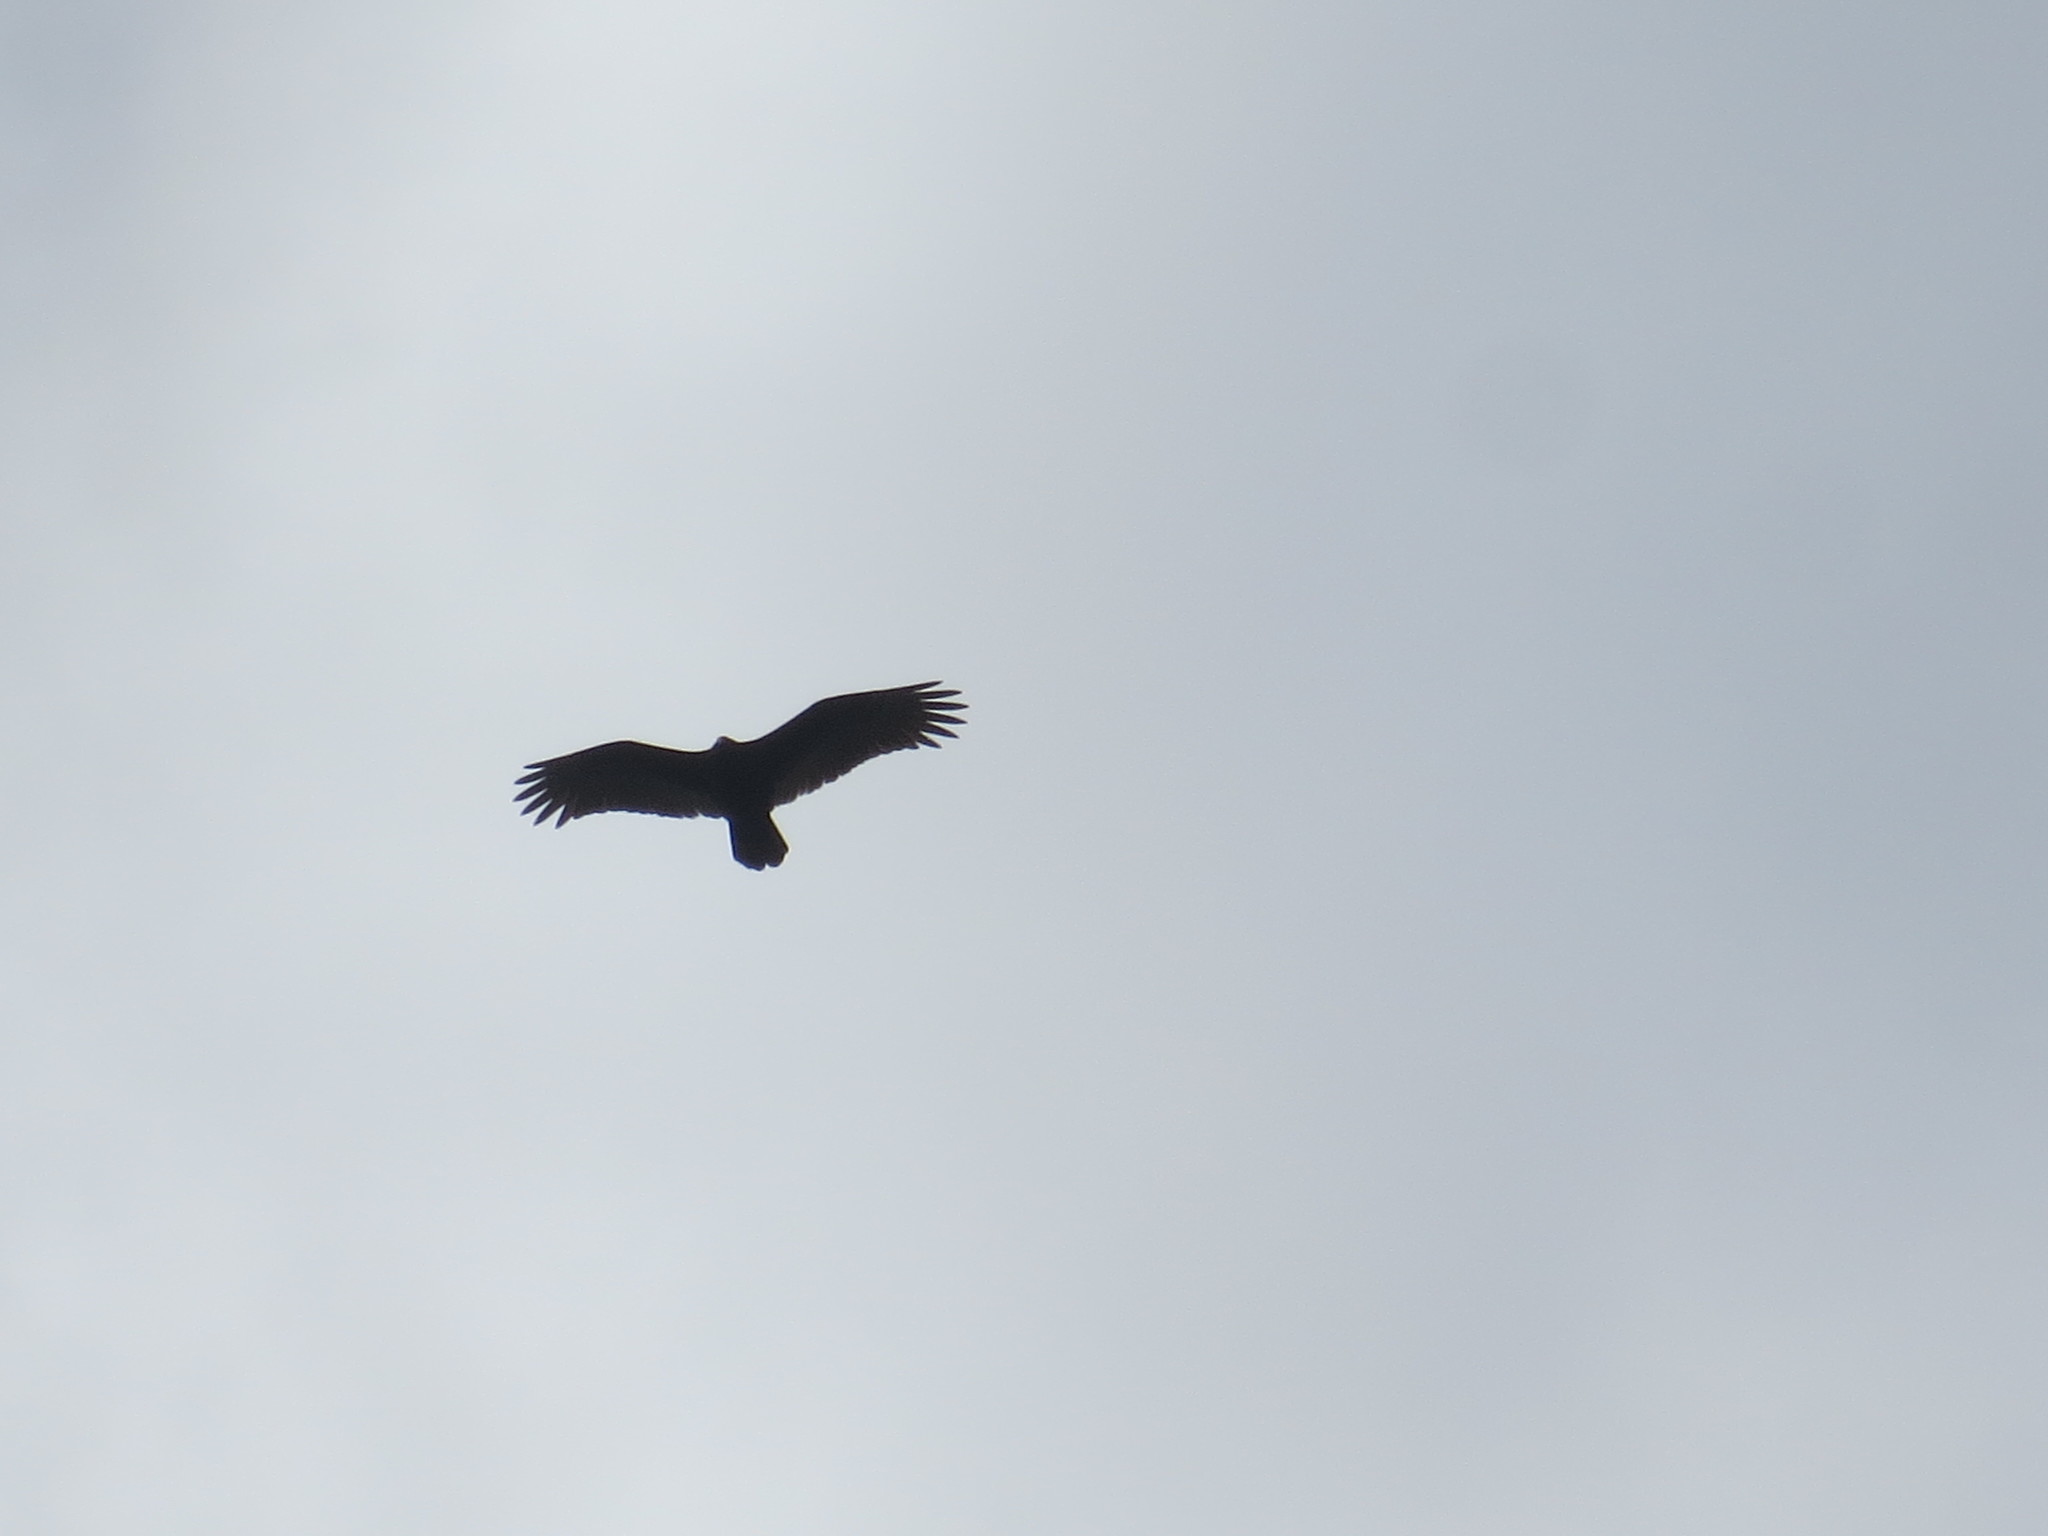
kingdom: Animalia
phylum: Chordata
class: Aves
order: Accipitriformes
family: Cathartidae
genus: Cathartes
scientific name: Cathartes aura
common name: Turkey vulture
